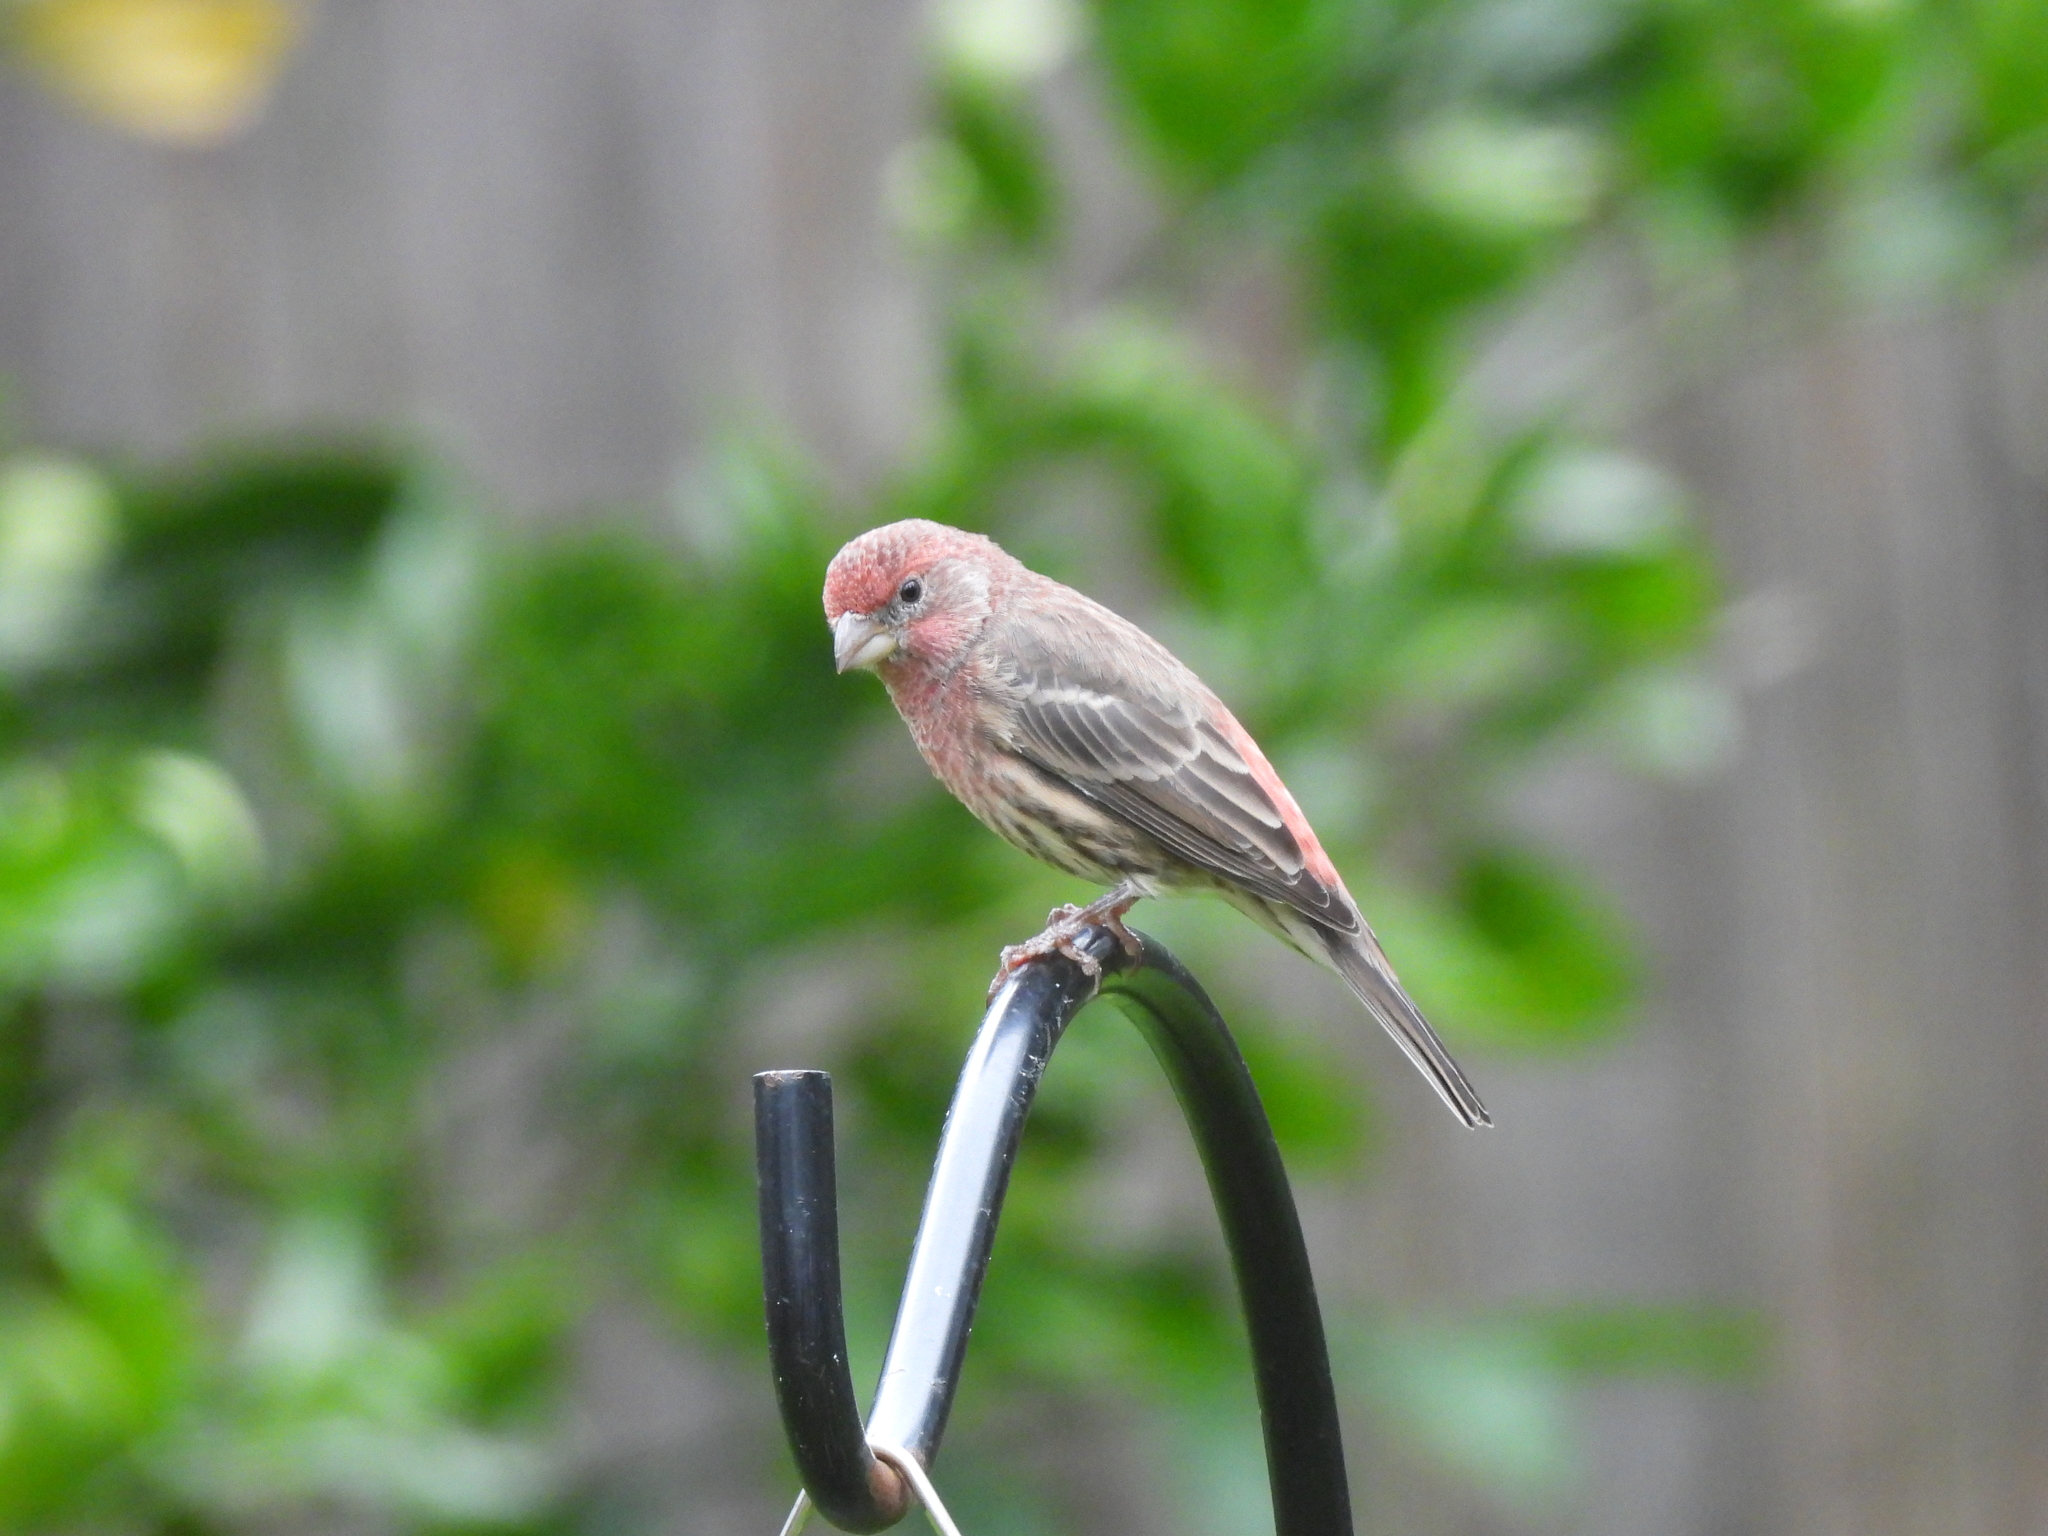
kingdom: Animalia
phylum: Chordata
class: Aves
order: Passeriformes
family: Fringillidae
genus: Haemorhous
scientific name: Haemorhous mexicanus
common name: House finch
